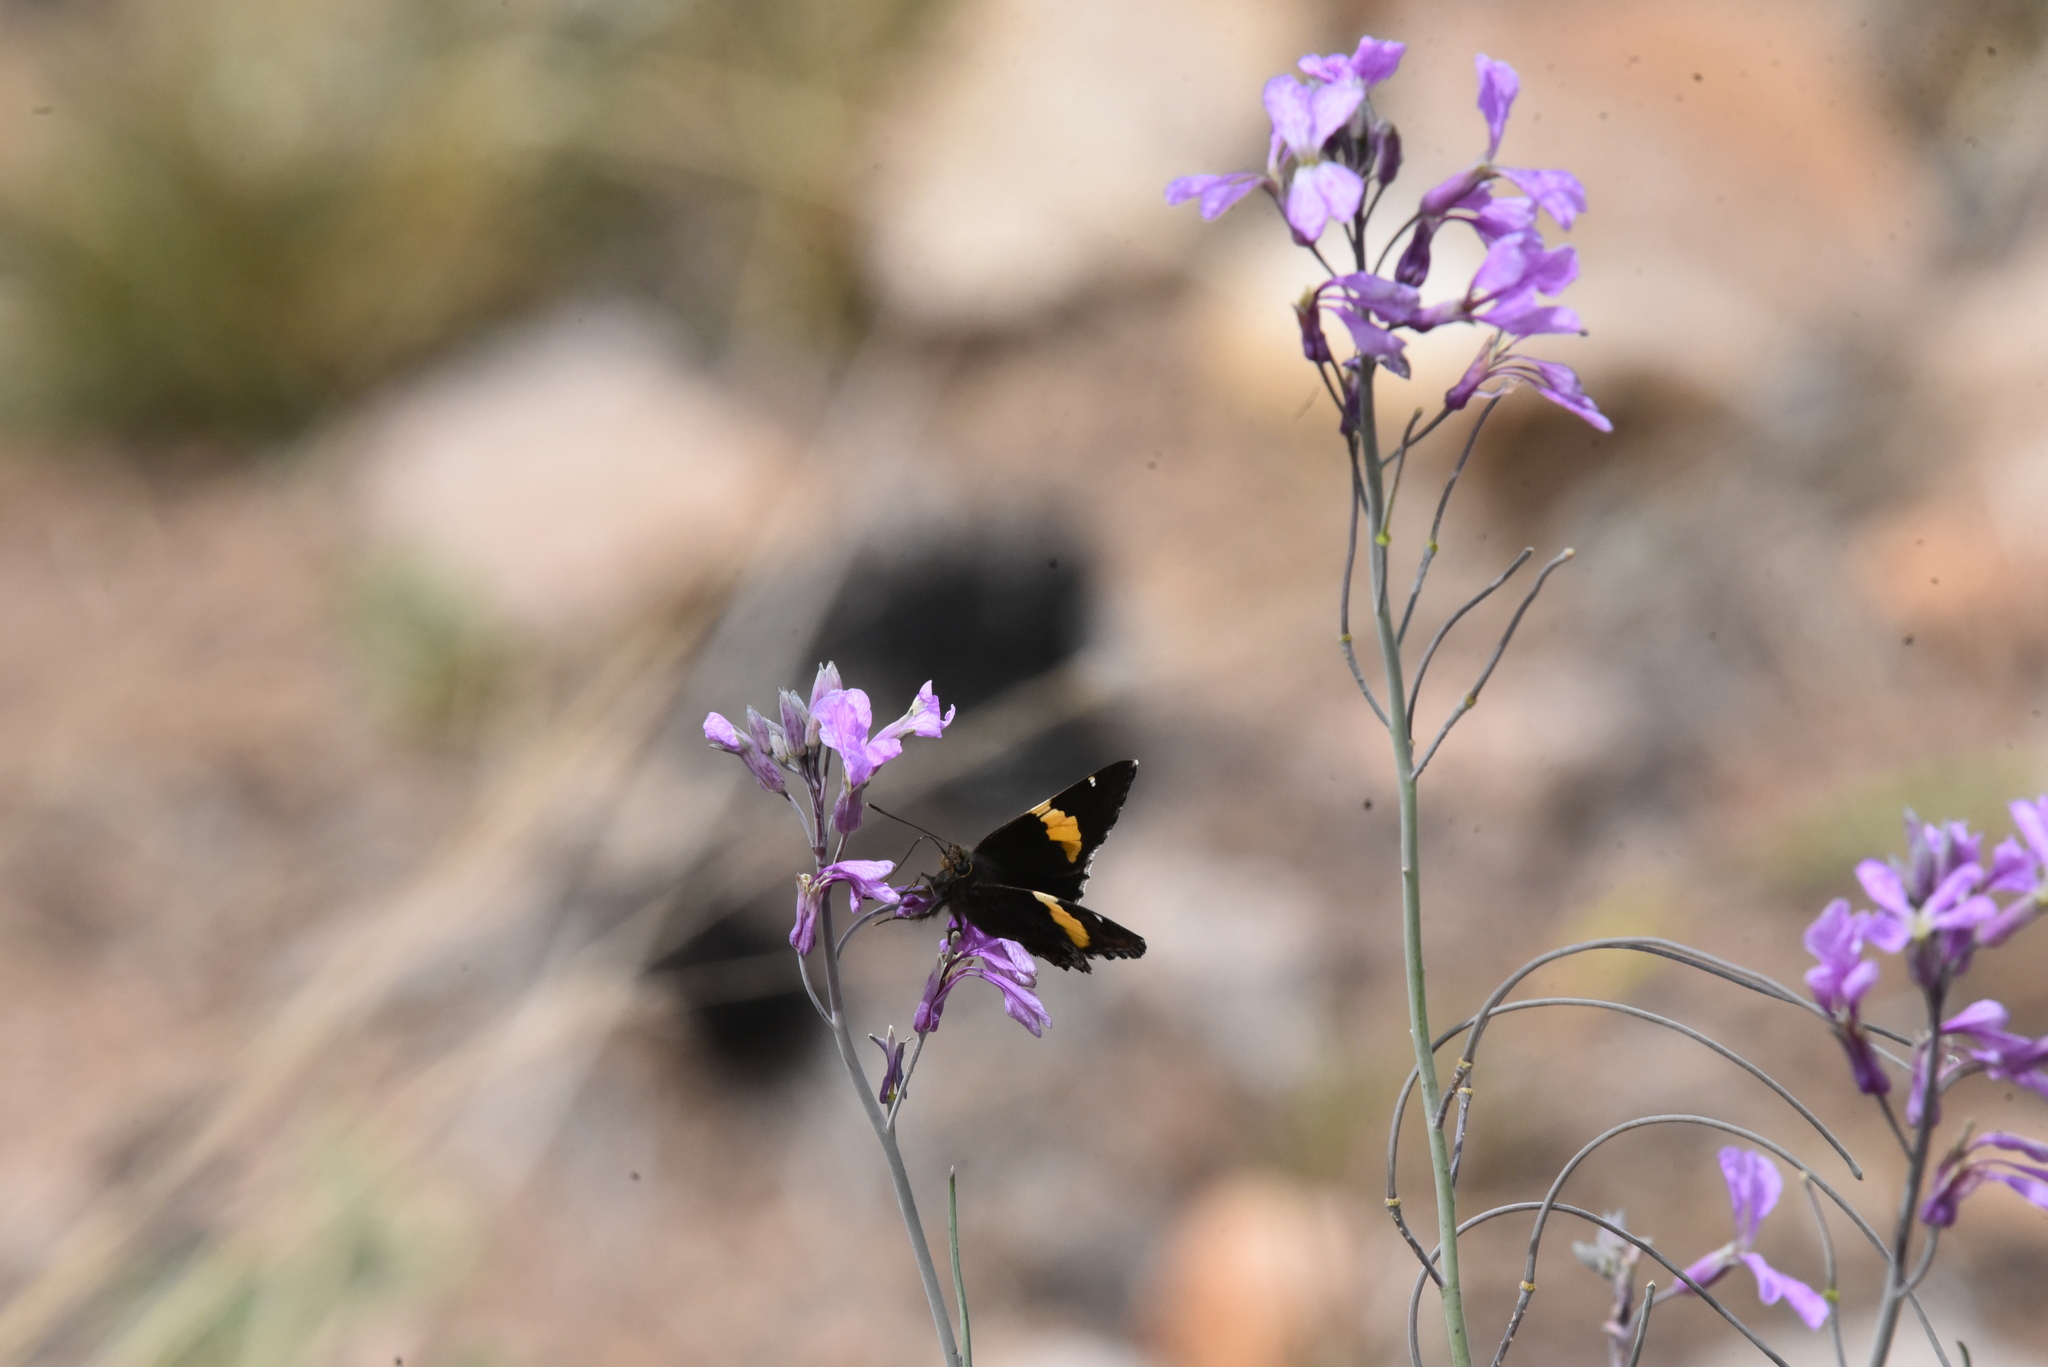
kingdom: Animalia
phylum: Arthropoda
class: Arachnida
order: Scorpiones
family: Bothriuridae
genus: Telegonus
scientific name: Telegonus cellus
